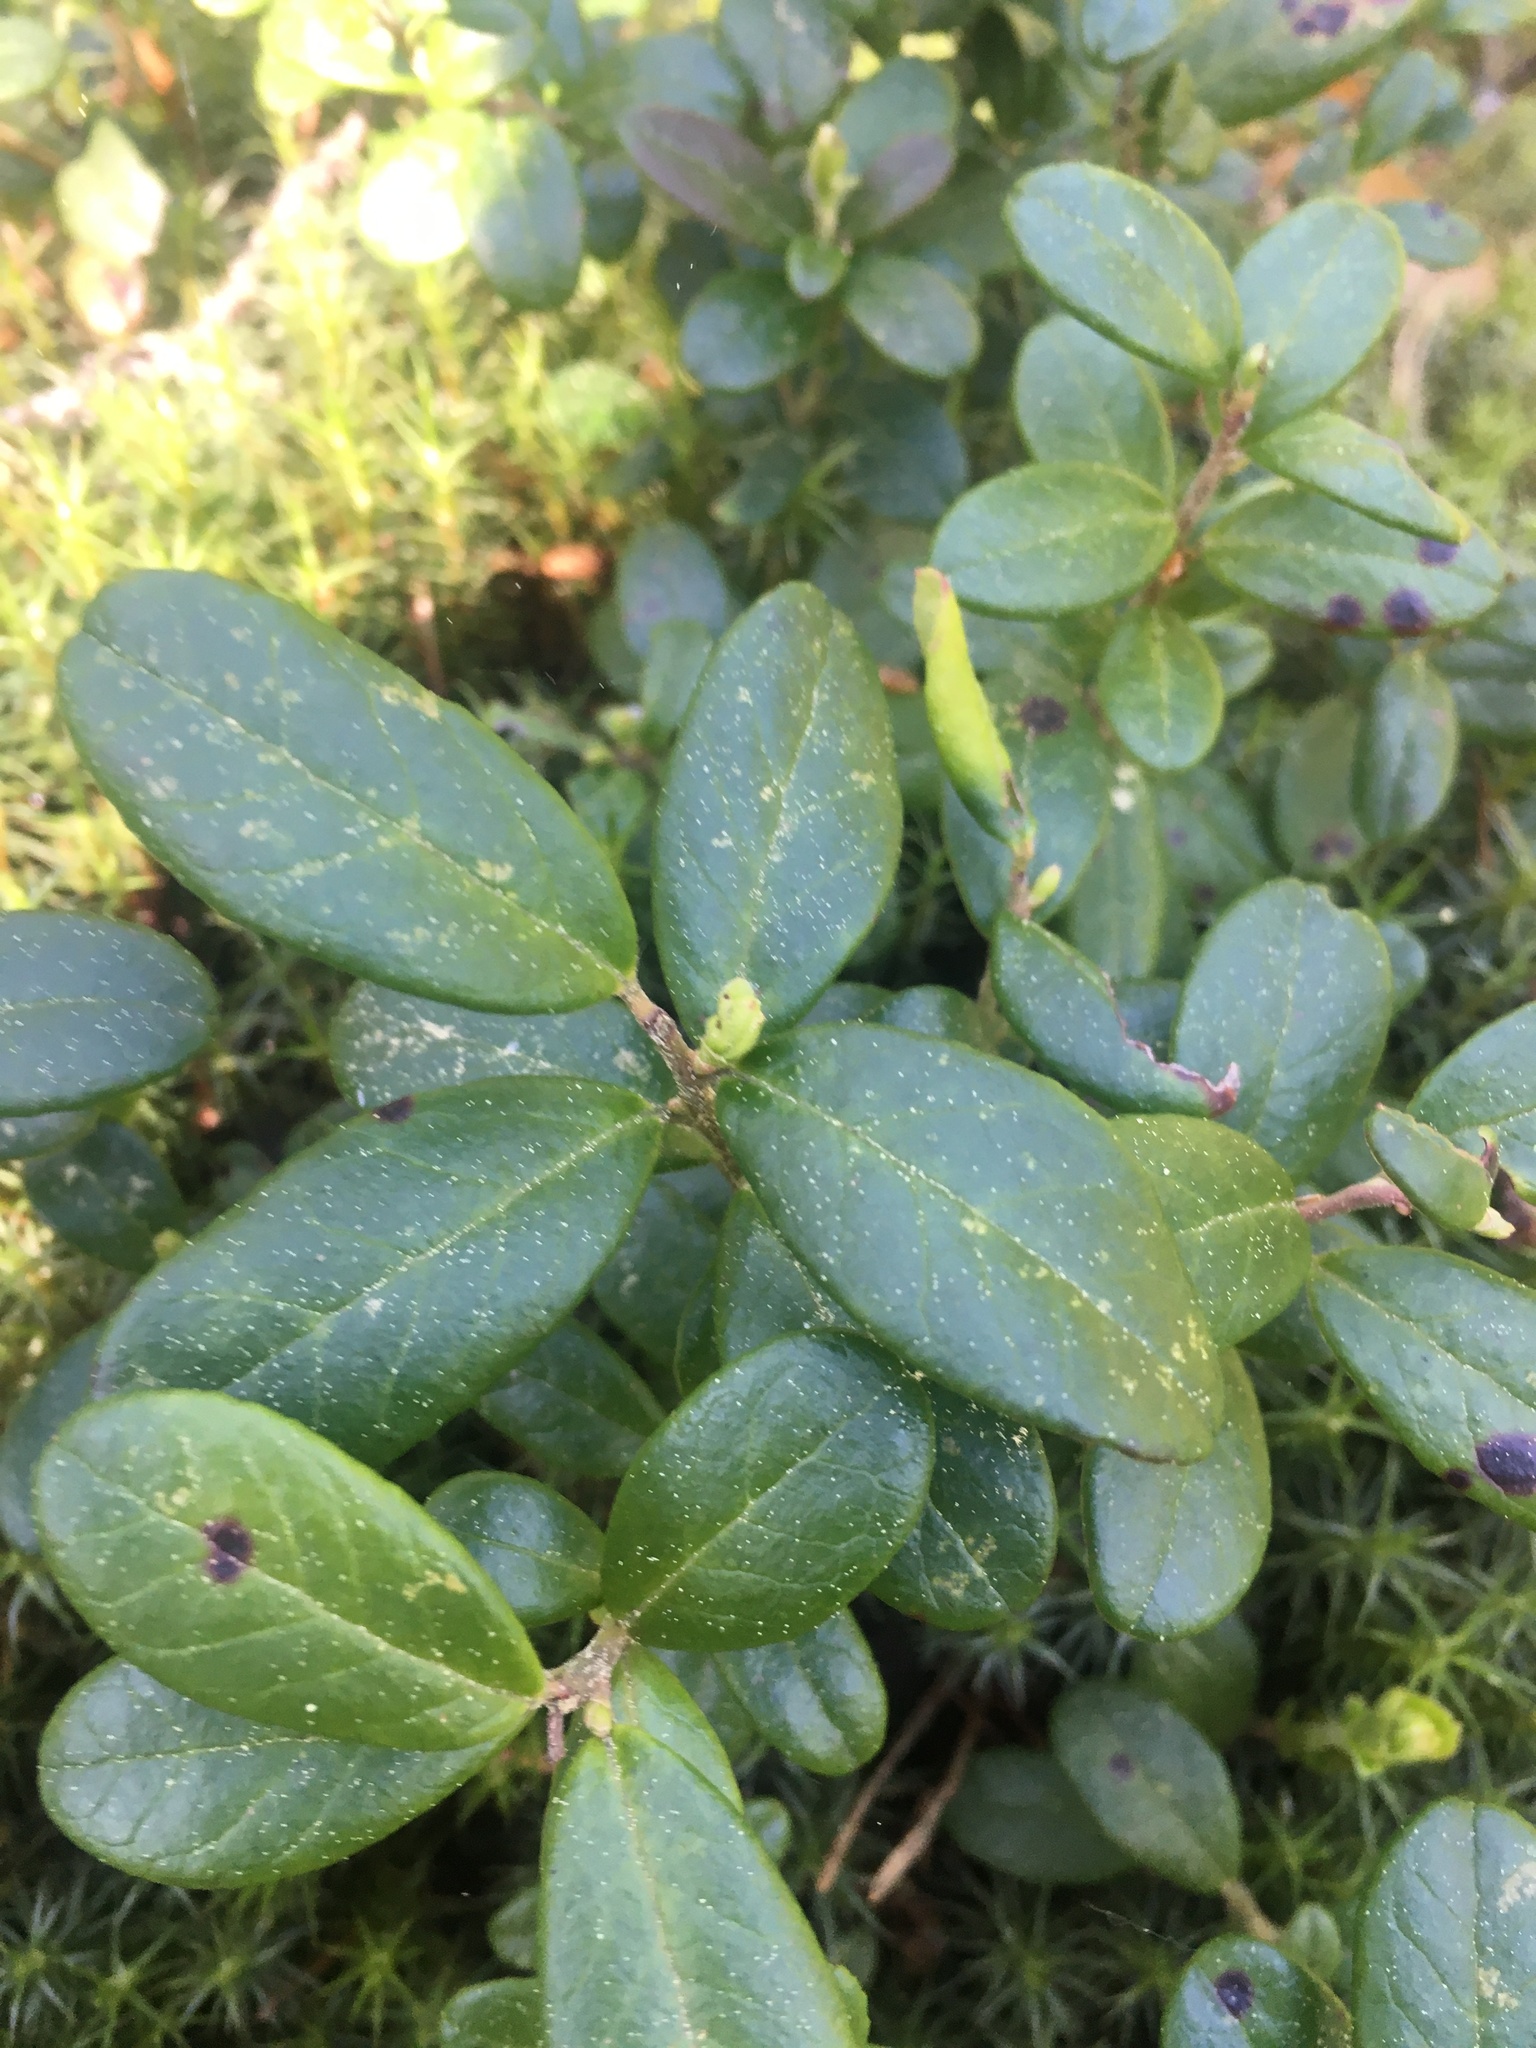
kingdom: Plantae
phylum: Tracheophyta
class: Magnoliopsida
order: Ericales
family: Ericaceae
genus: Vaccinium
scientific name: Vaccinium vitis-idaea
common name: Cowberry
